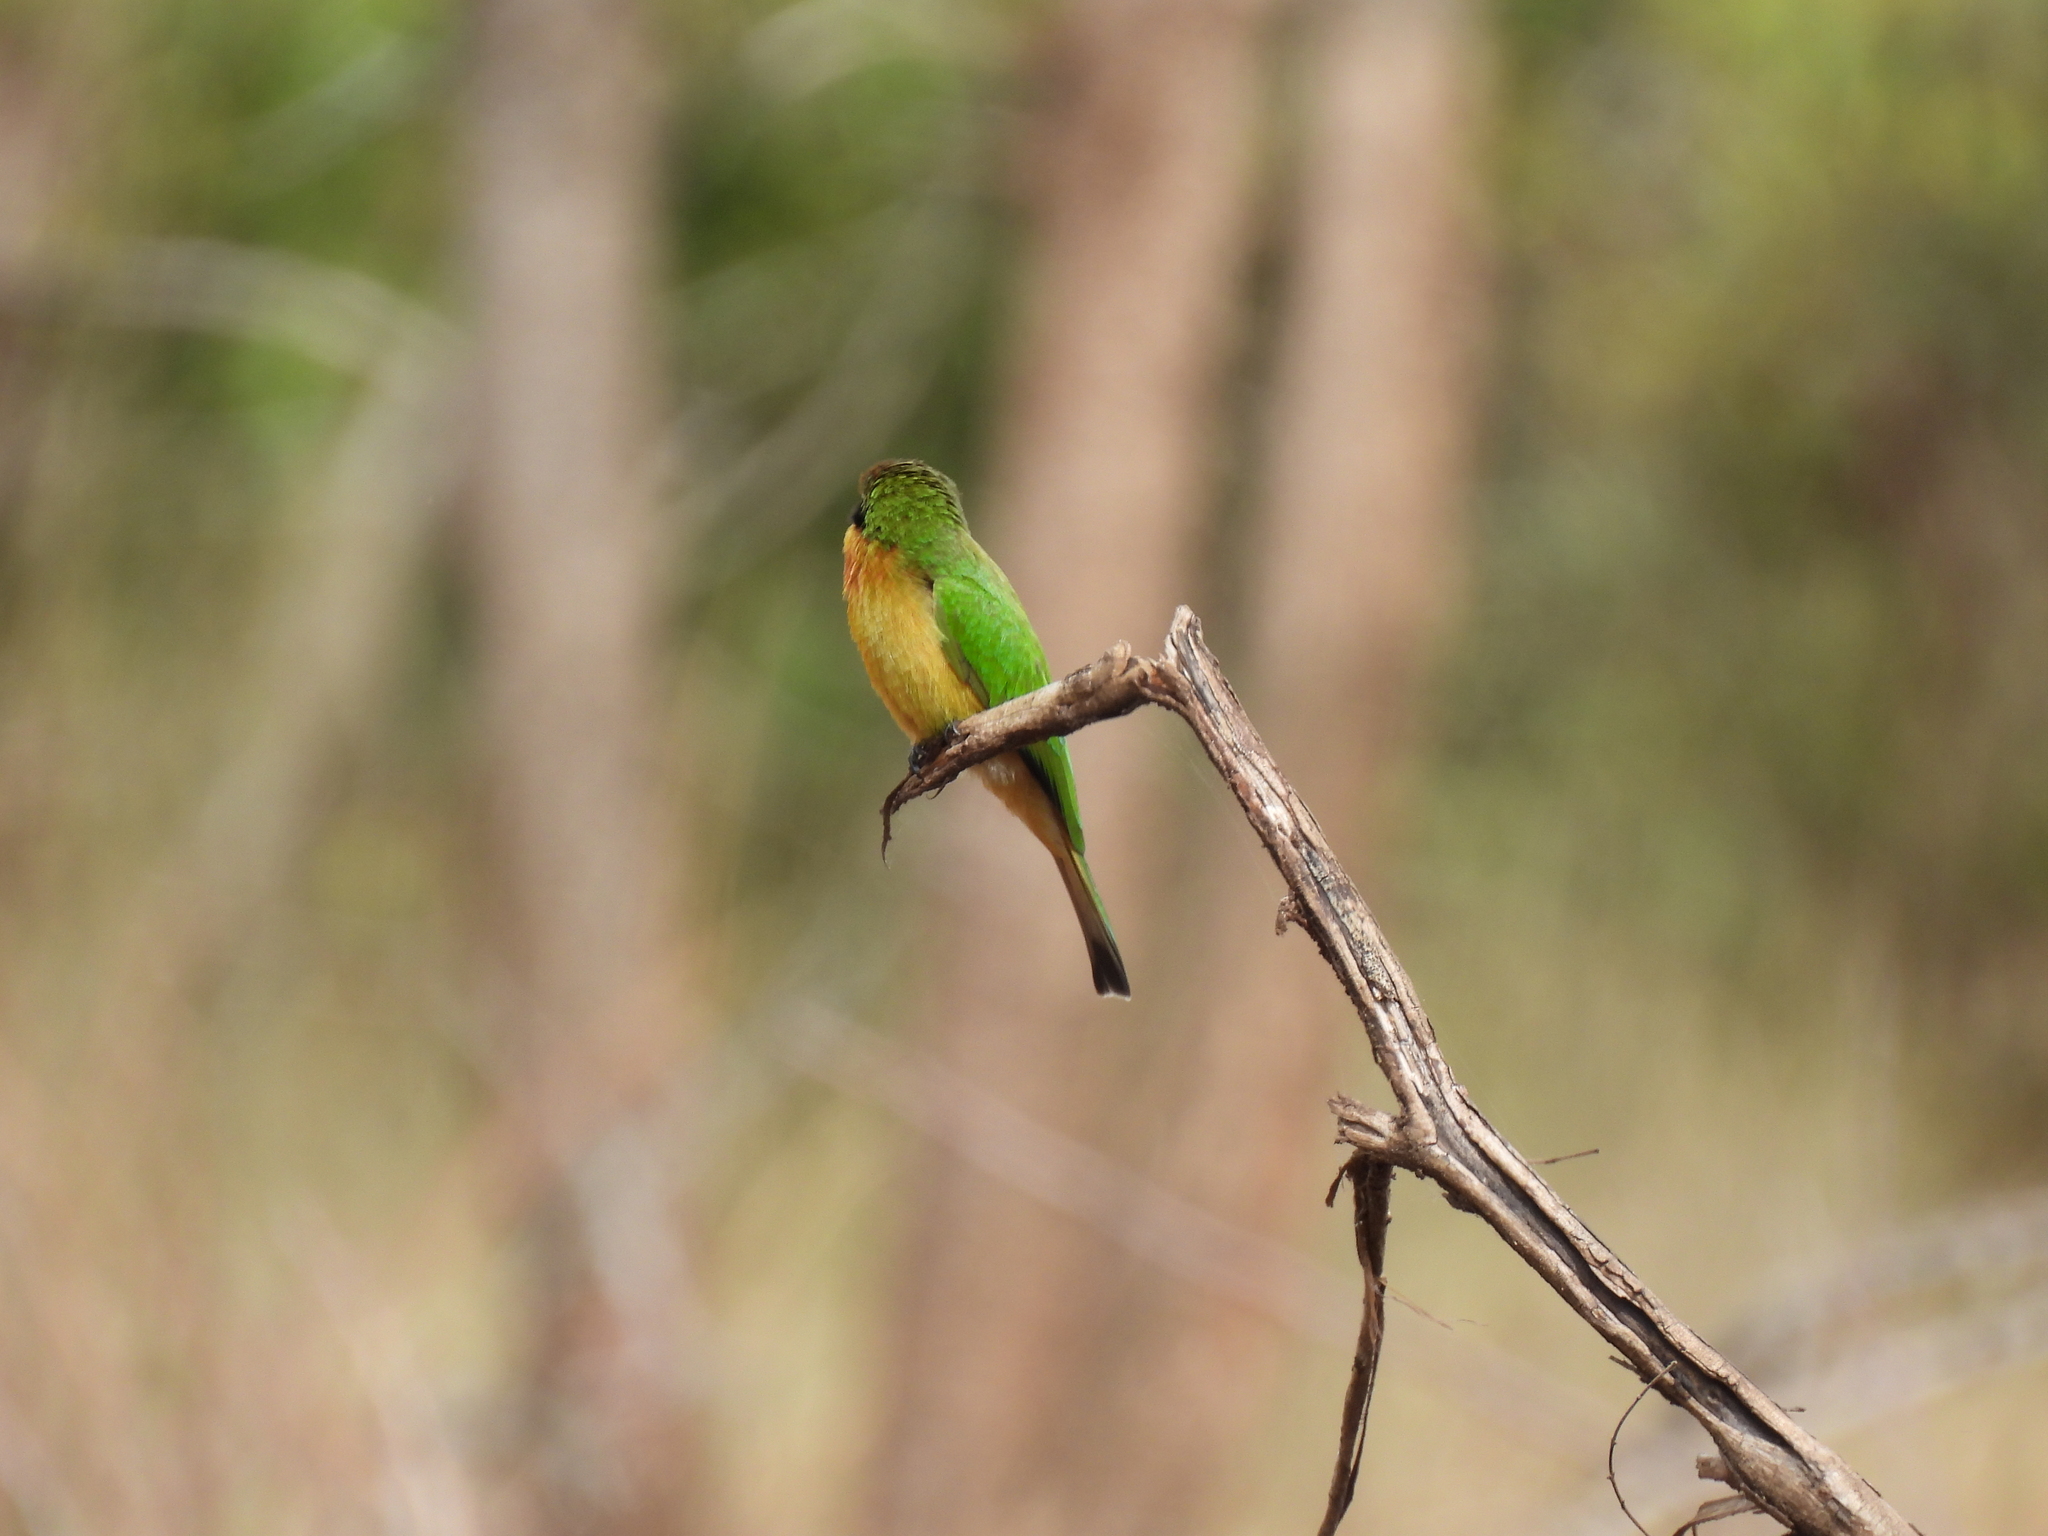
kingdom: Animalia
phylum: Chordata
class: Aves
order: Coraciiformes
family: Meropidae
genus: Merops
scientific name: Merops pusillus
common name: Little bee-eater
